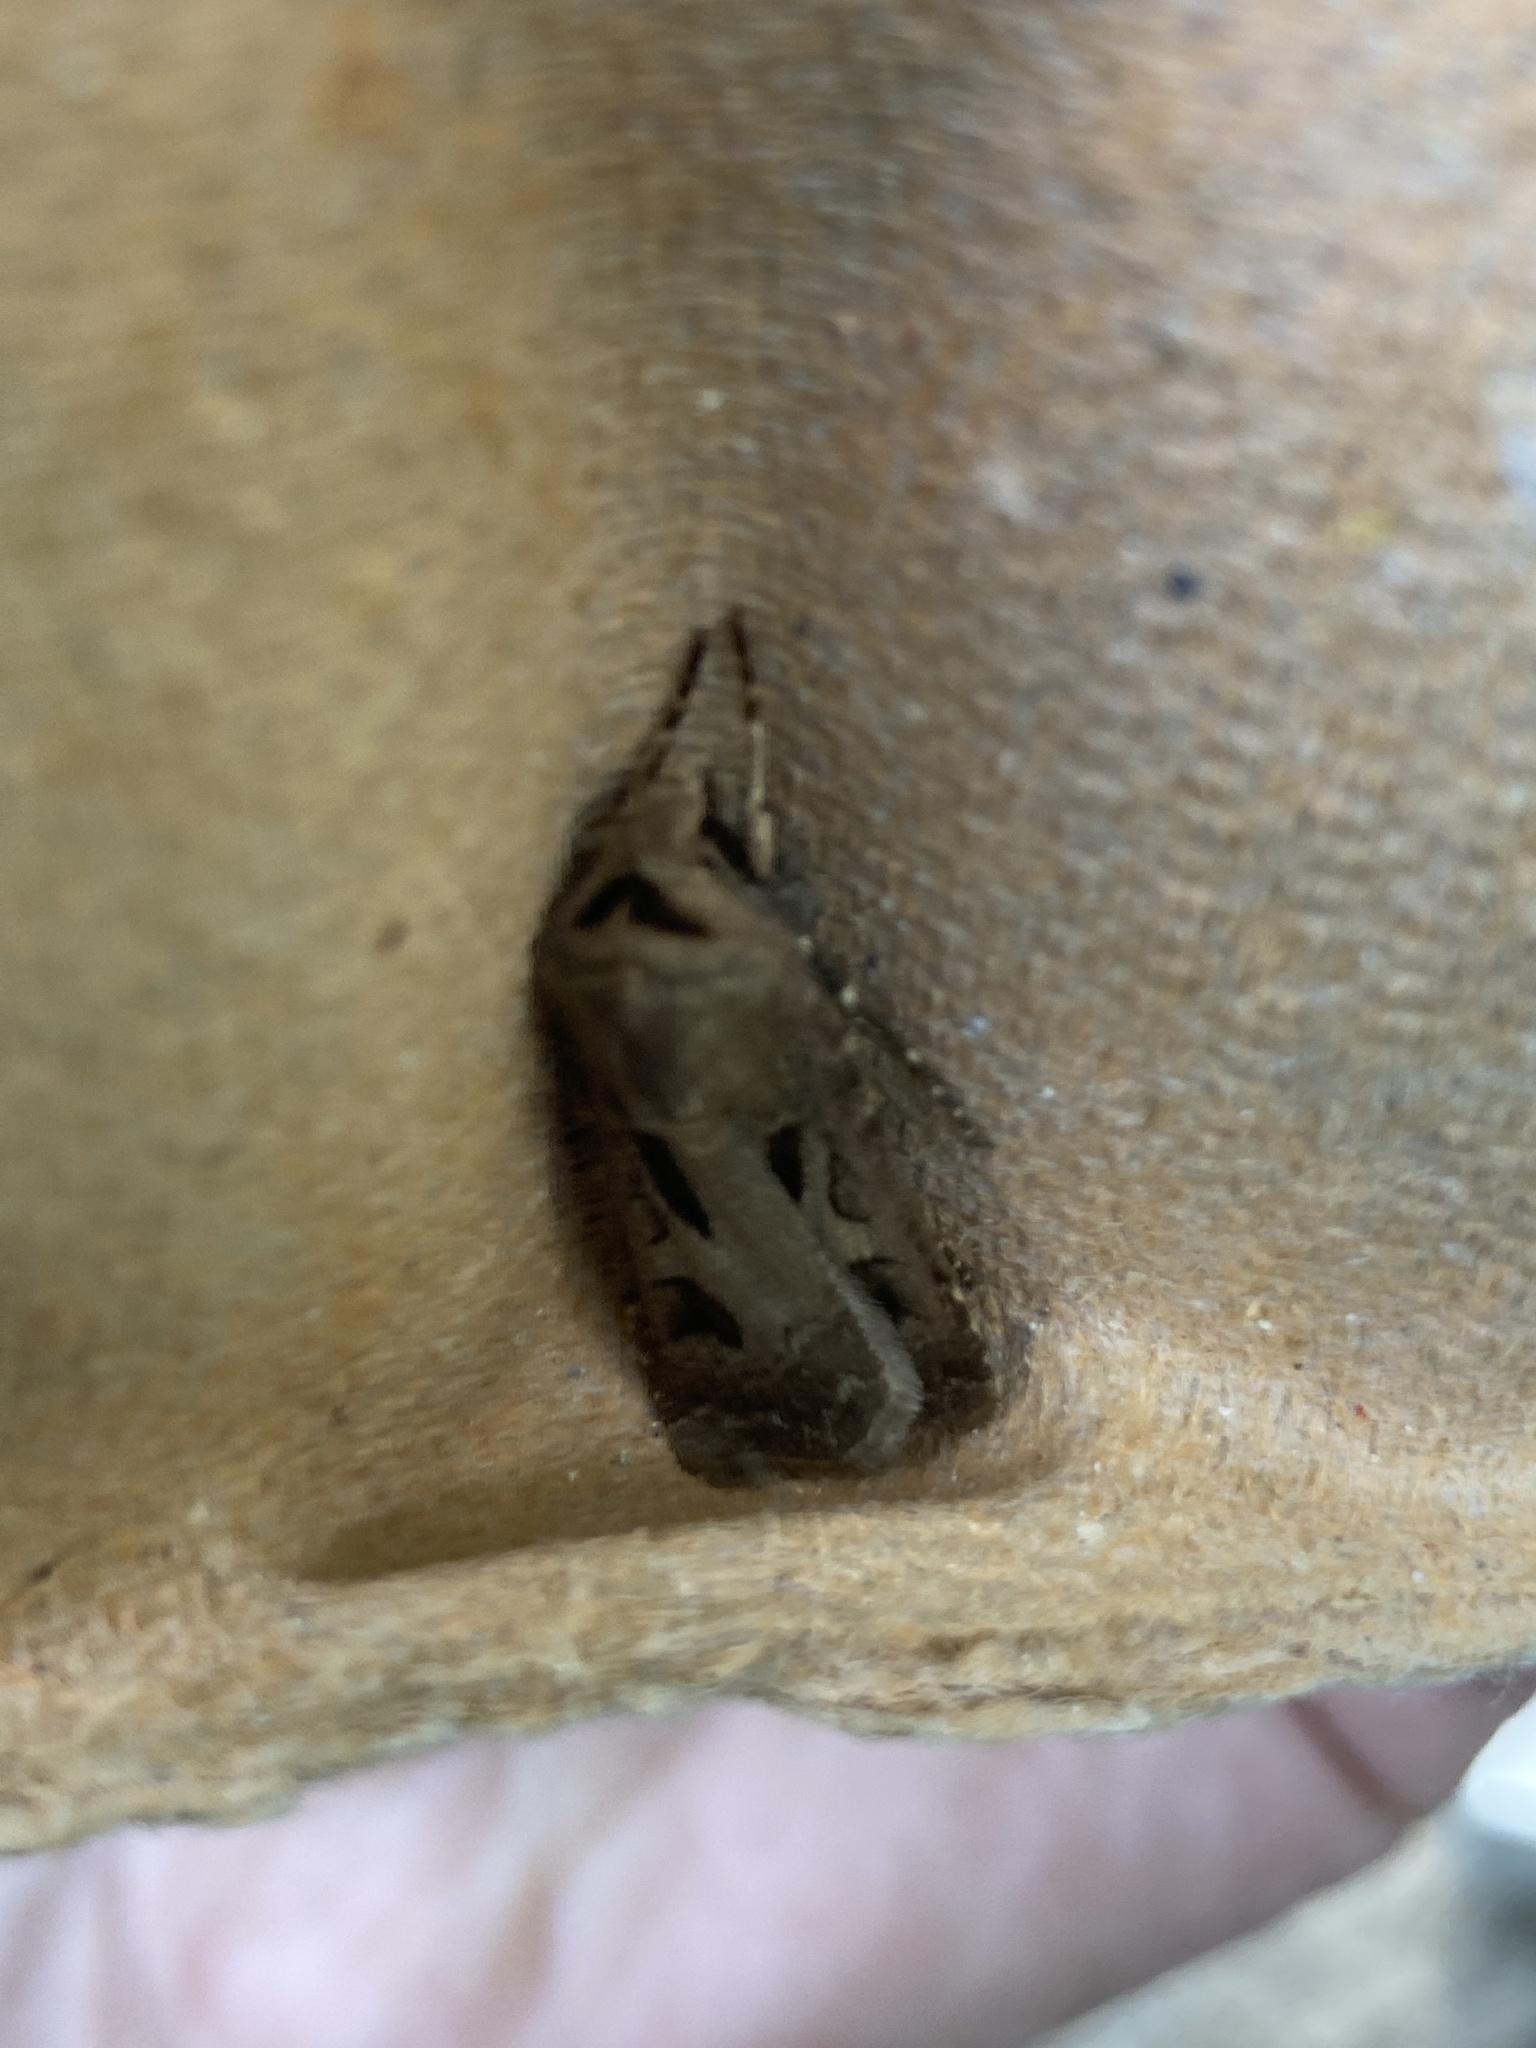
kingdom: Animalia
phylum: Arthropoda
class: Insecta
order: Lepidoptera
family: Noctuidae
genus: Agrotis
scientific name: Agrotis exclamationis
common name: Heart and dart
